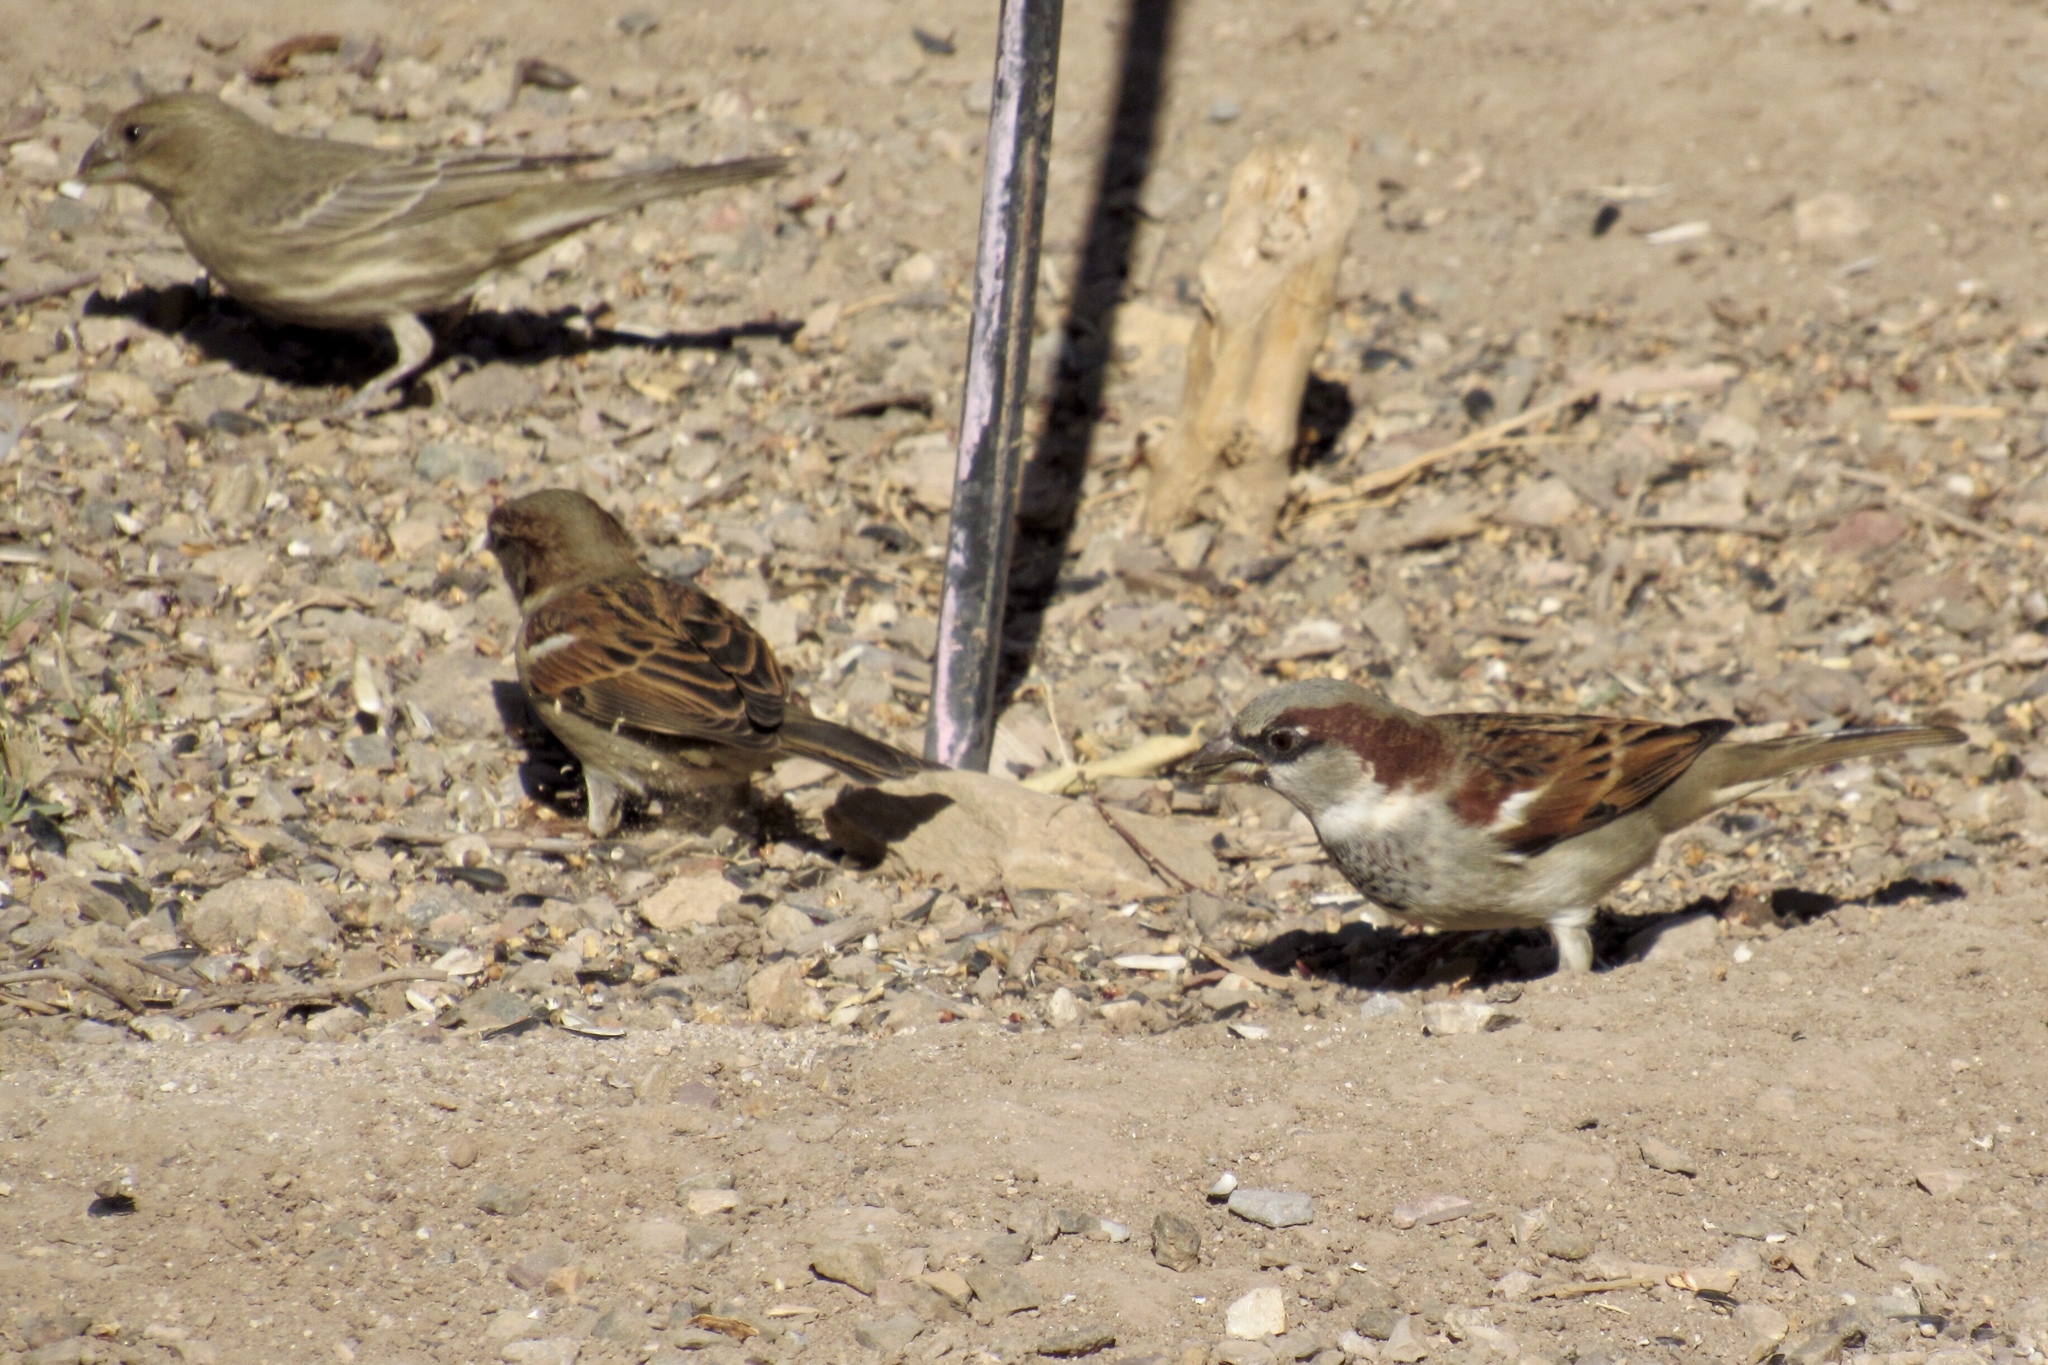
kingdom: Animalia
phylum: Chordata
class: Aves
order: Passeriformes
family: Fringillidae
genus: Haemorhous
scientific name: Haemorhous mexicanus
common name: House finch
